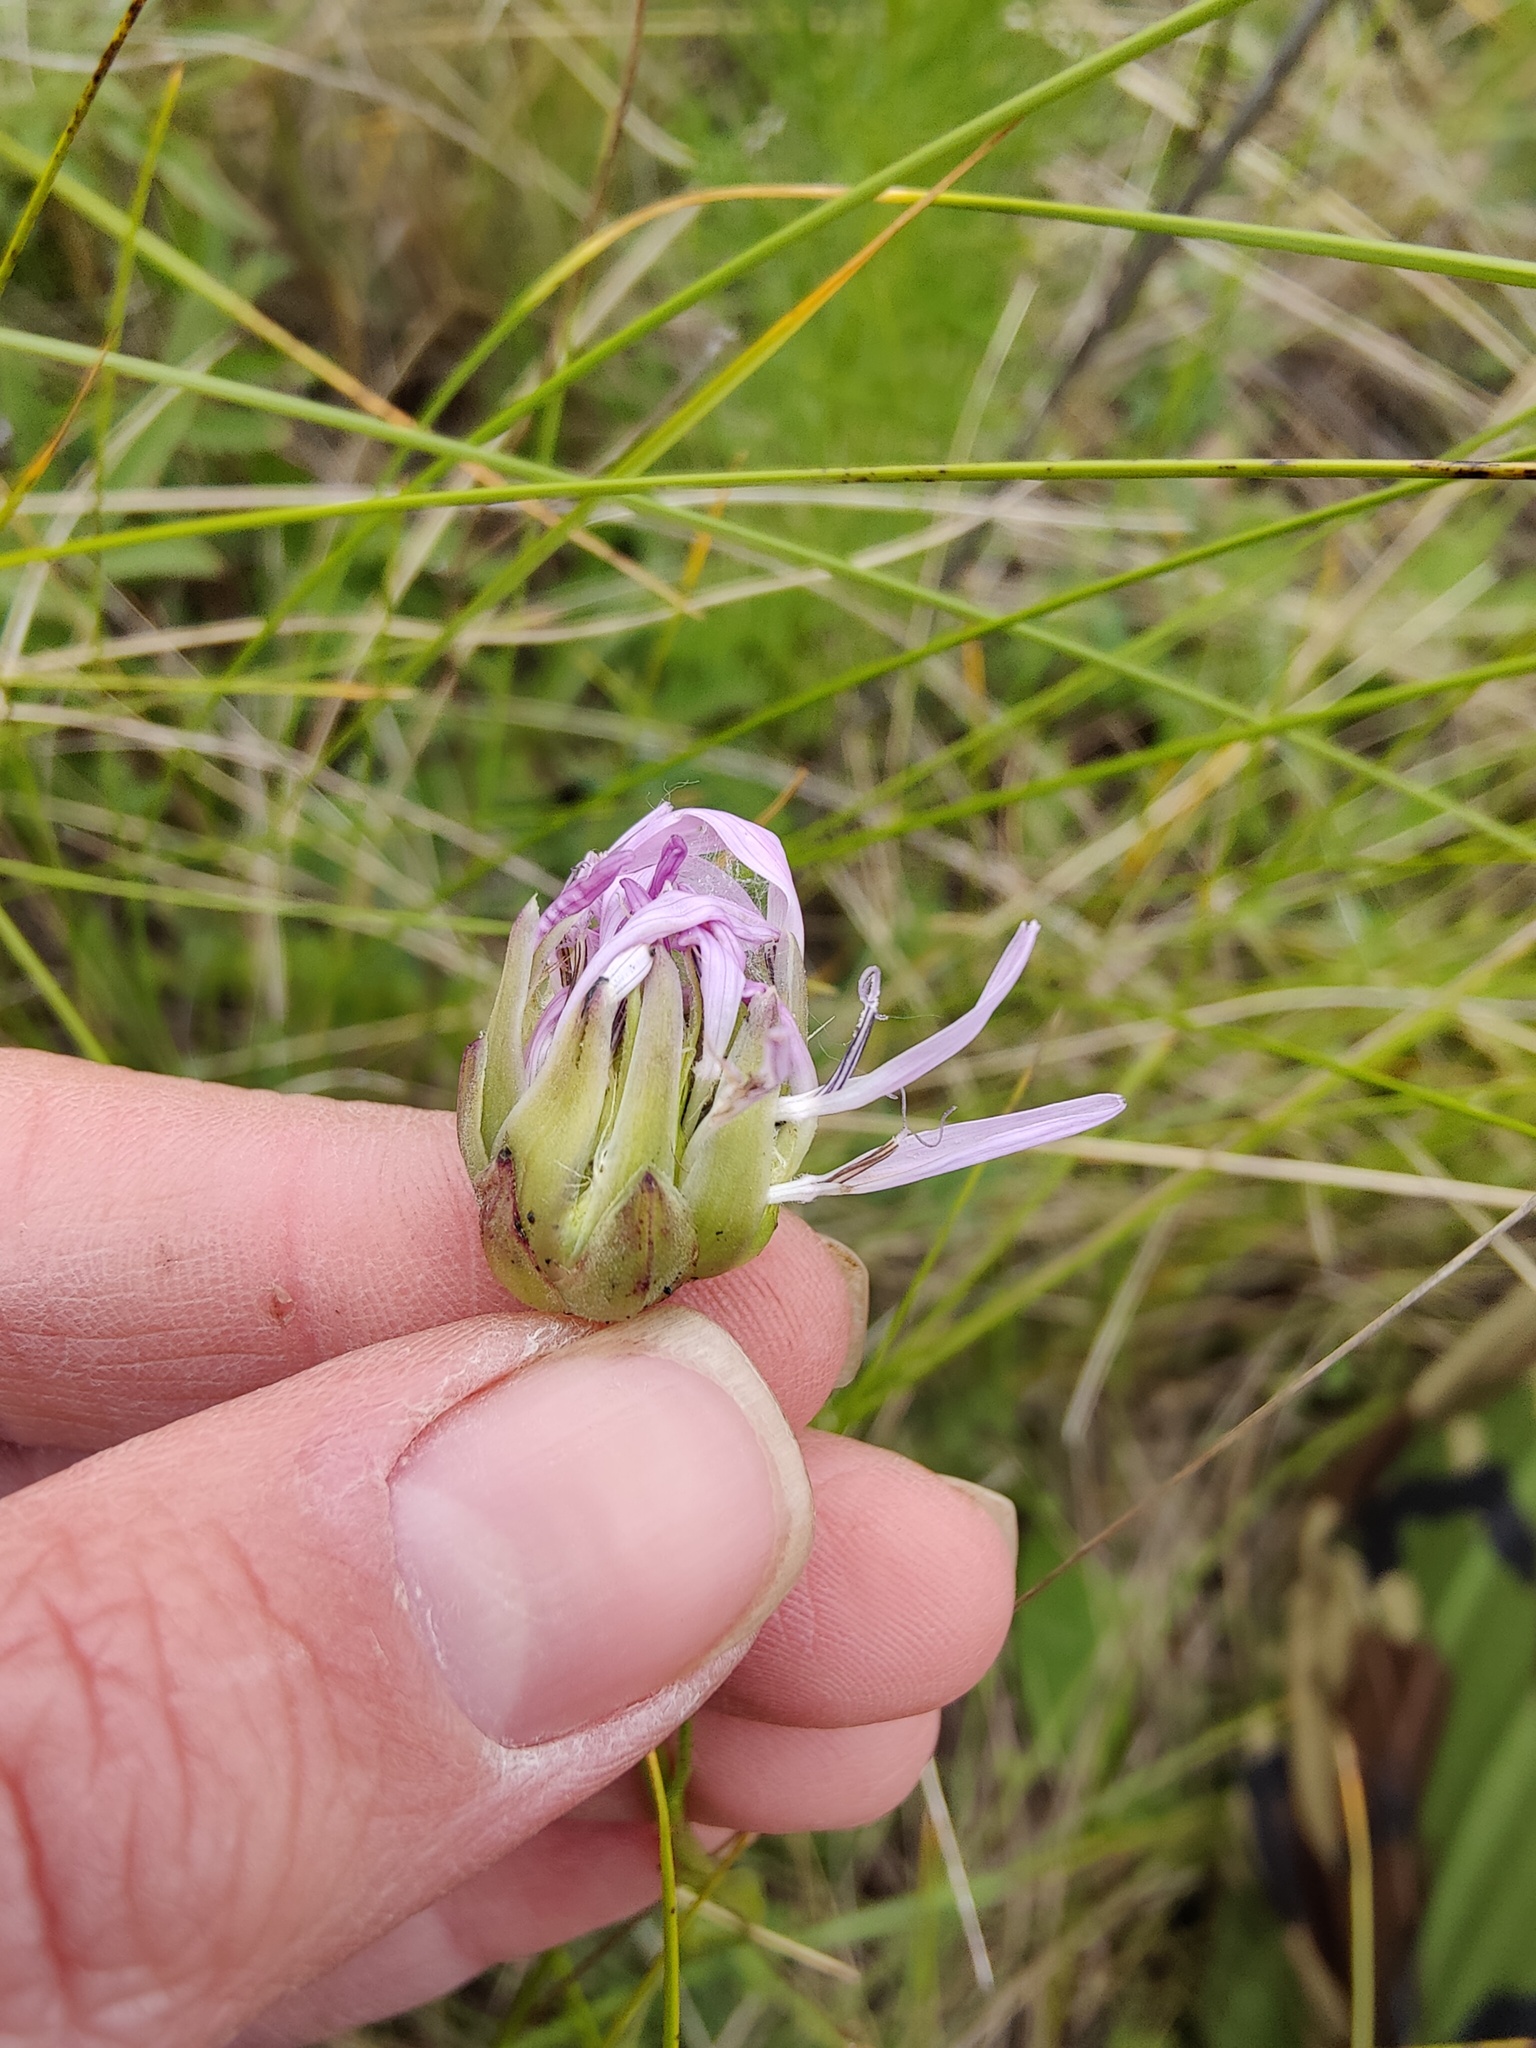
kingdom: Plantae
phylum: Tracheophyta
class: Magnoliopsida
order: Asterales
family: Asteraceae
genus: Scorzonera
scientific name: Scorzonera purpurea
